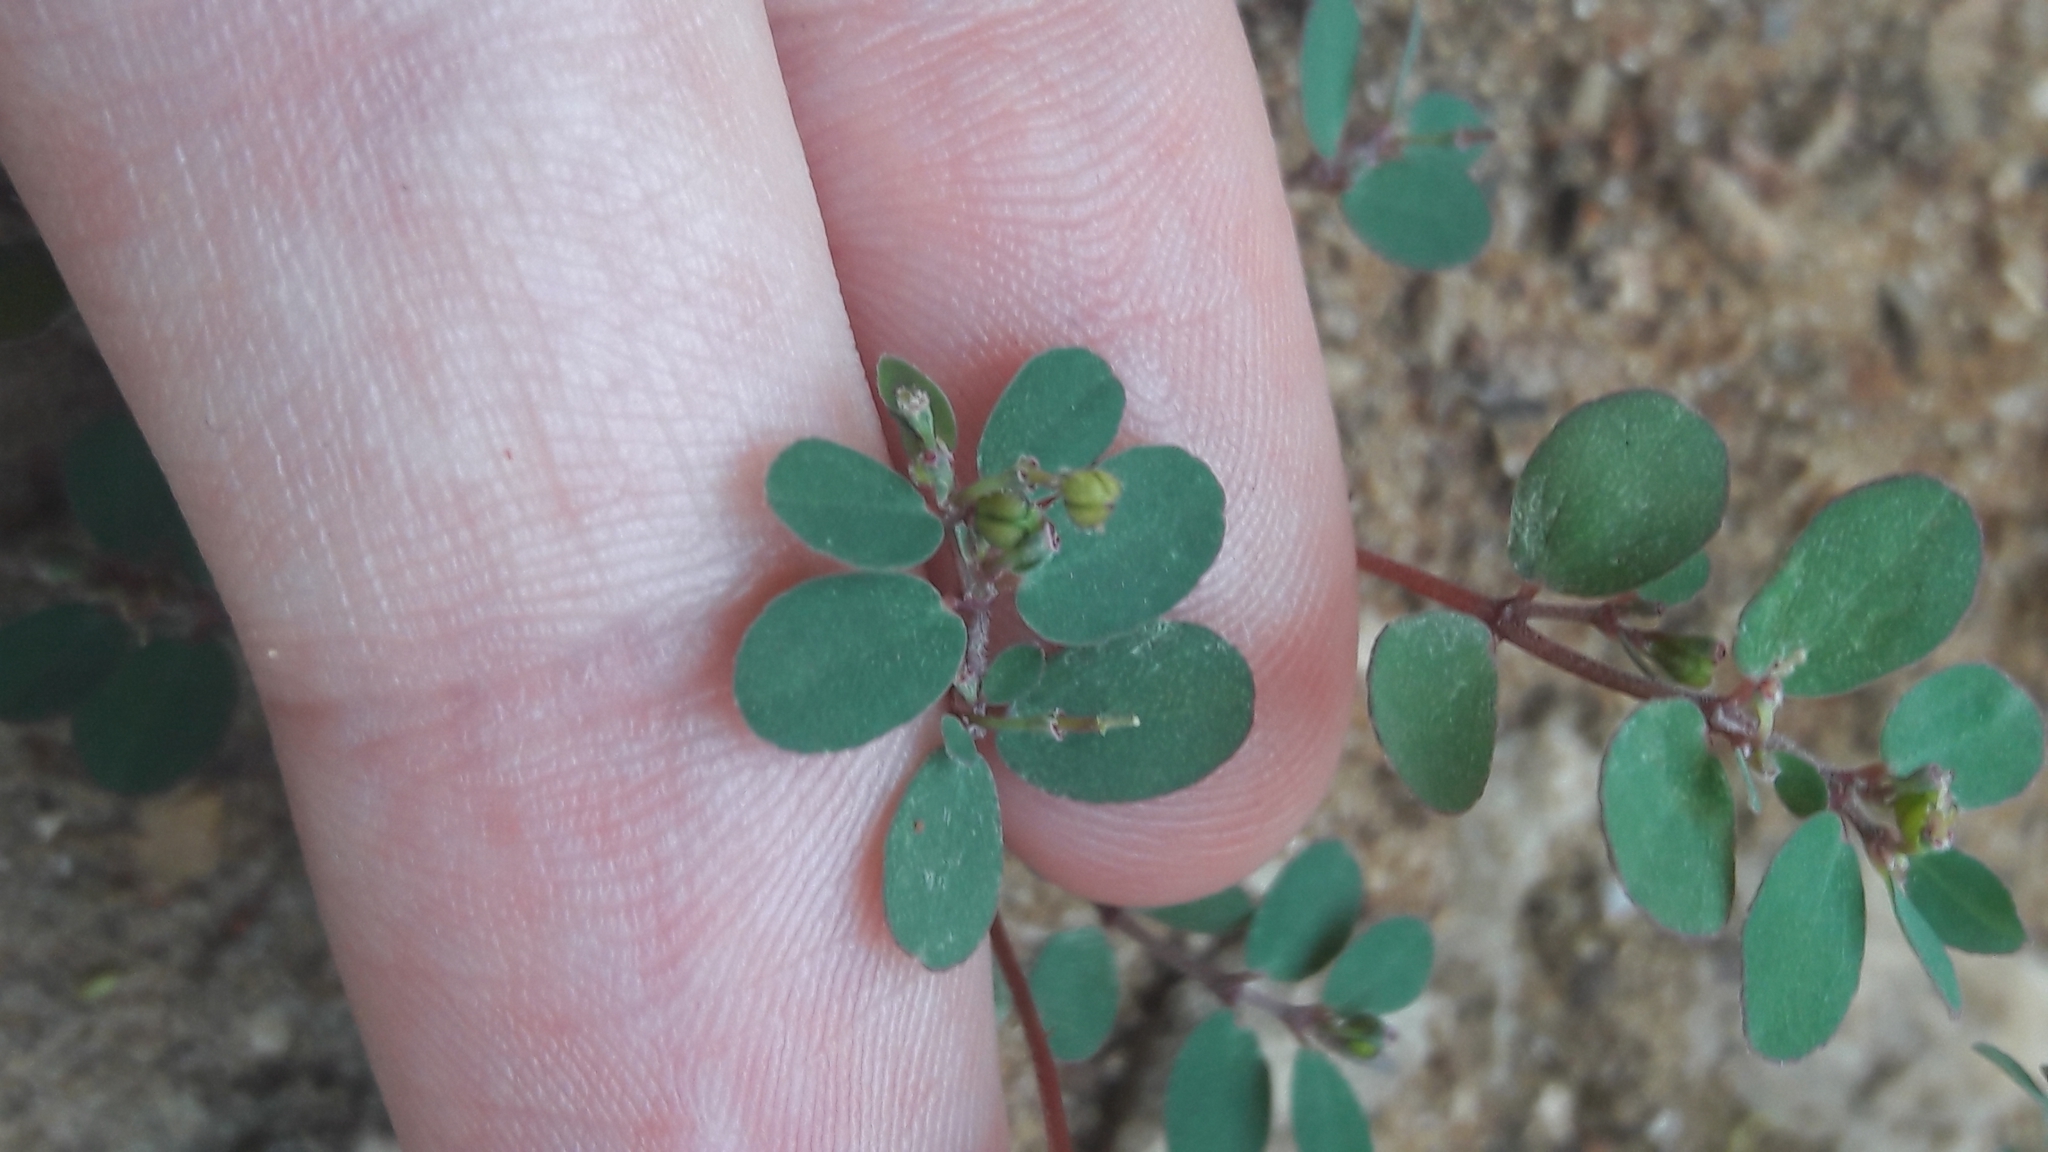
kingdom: Plantae
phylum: Tracheophyta
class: Magnoliopsida
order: Malpighiales
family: Euphorbiaceae
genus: Euphorbia
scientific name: Euphorbia prostrata
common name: Prostrate sandmat
